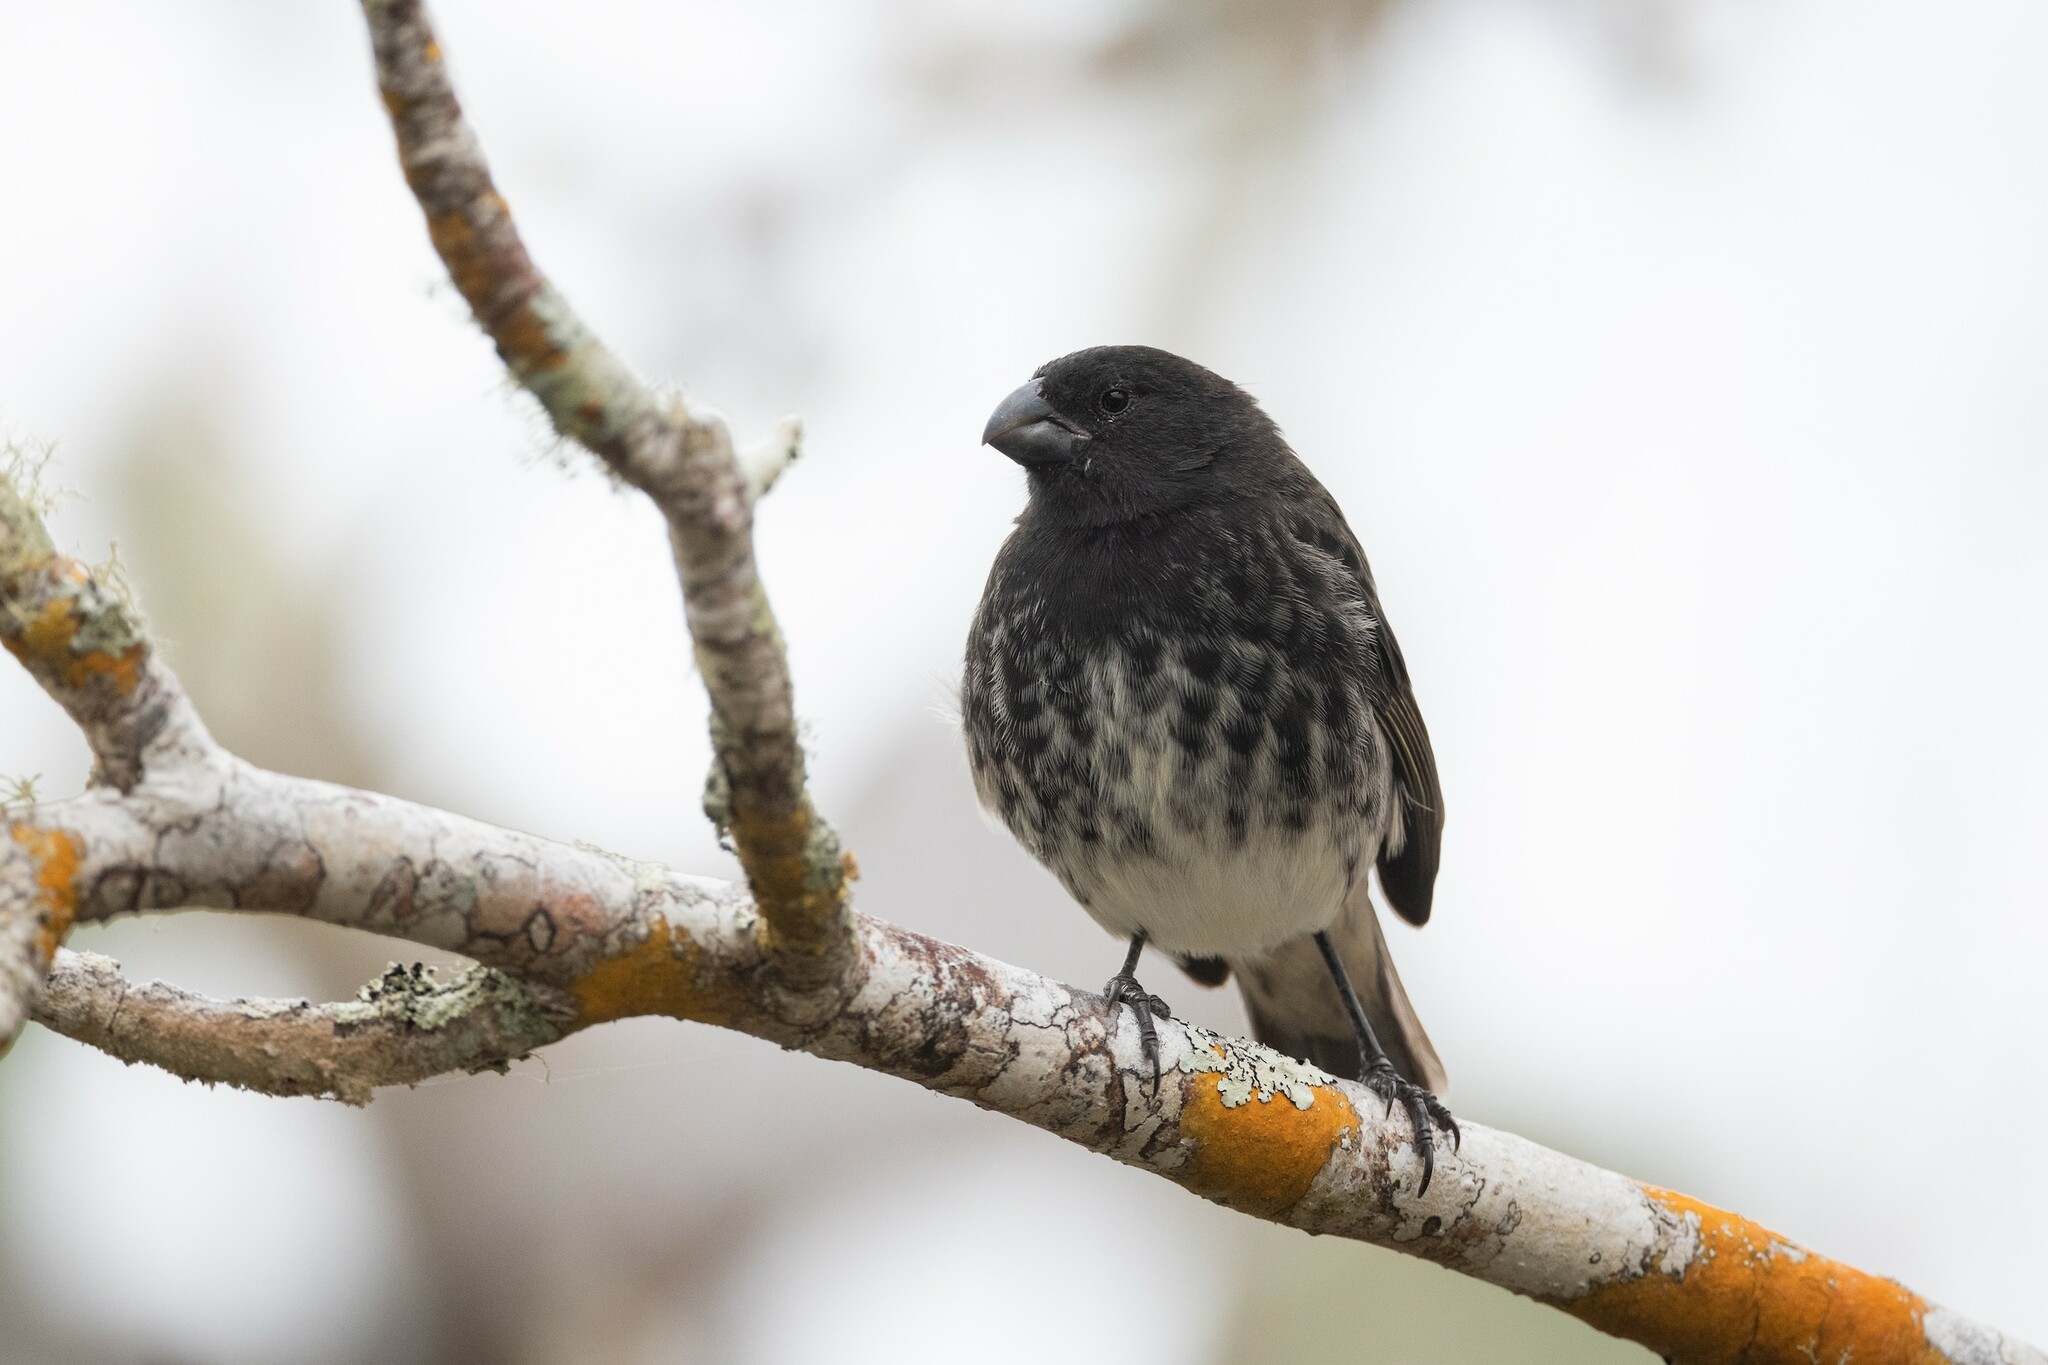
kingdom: Animalia
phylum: Chordata
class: Aves
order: Passeriformes
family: Thraupidae
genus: Platyspiza
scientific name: Platyspiza crassirostris
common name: Vegetarian finch
